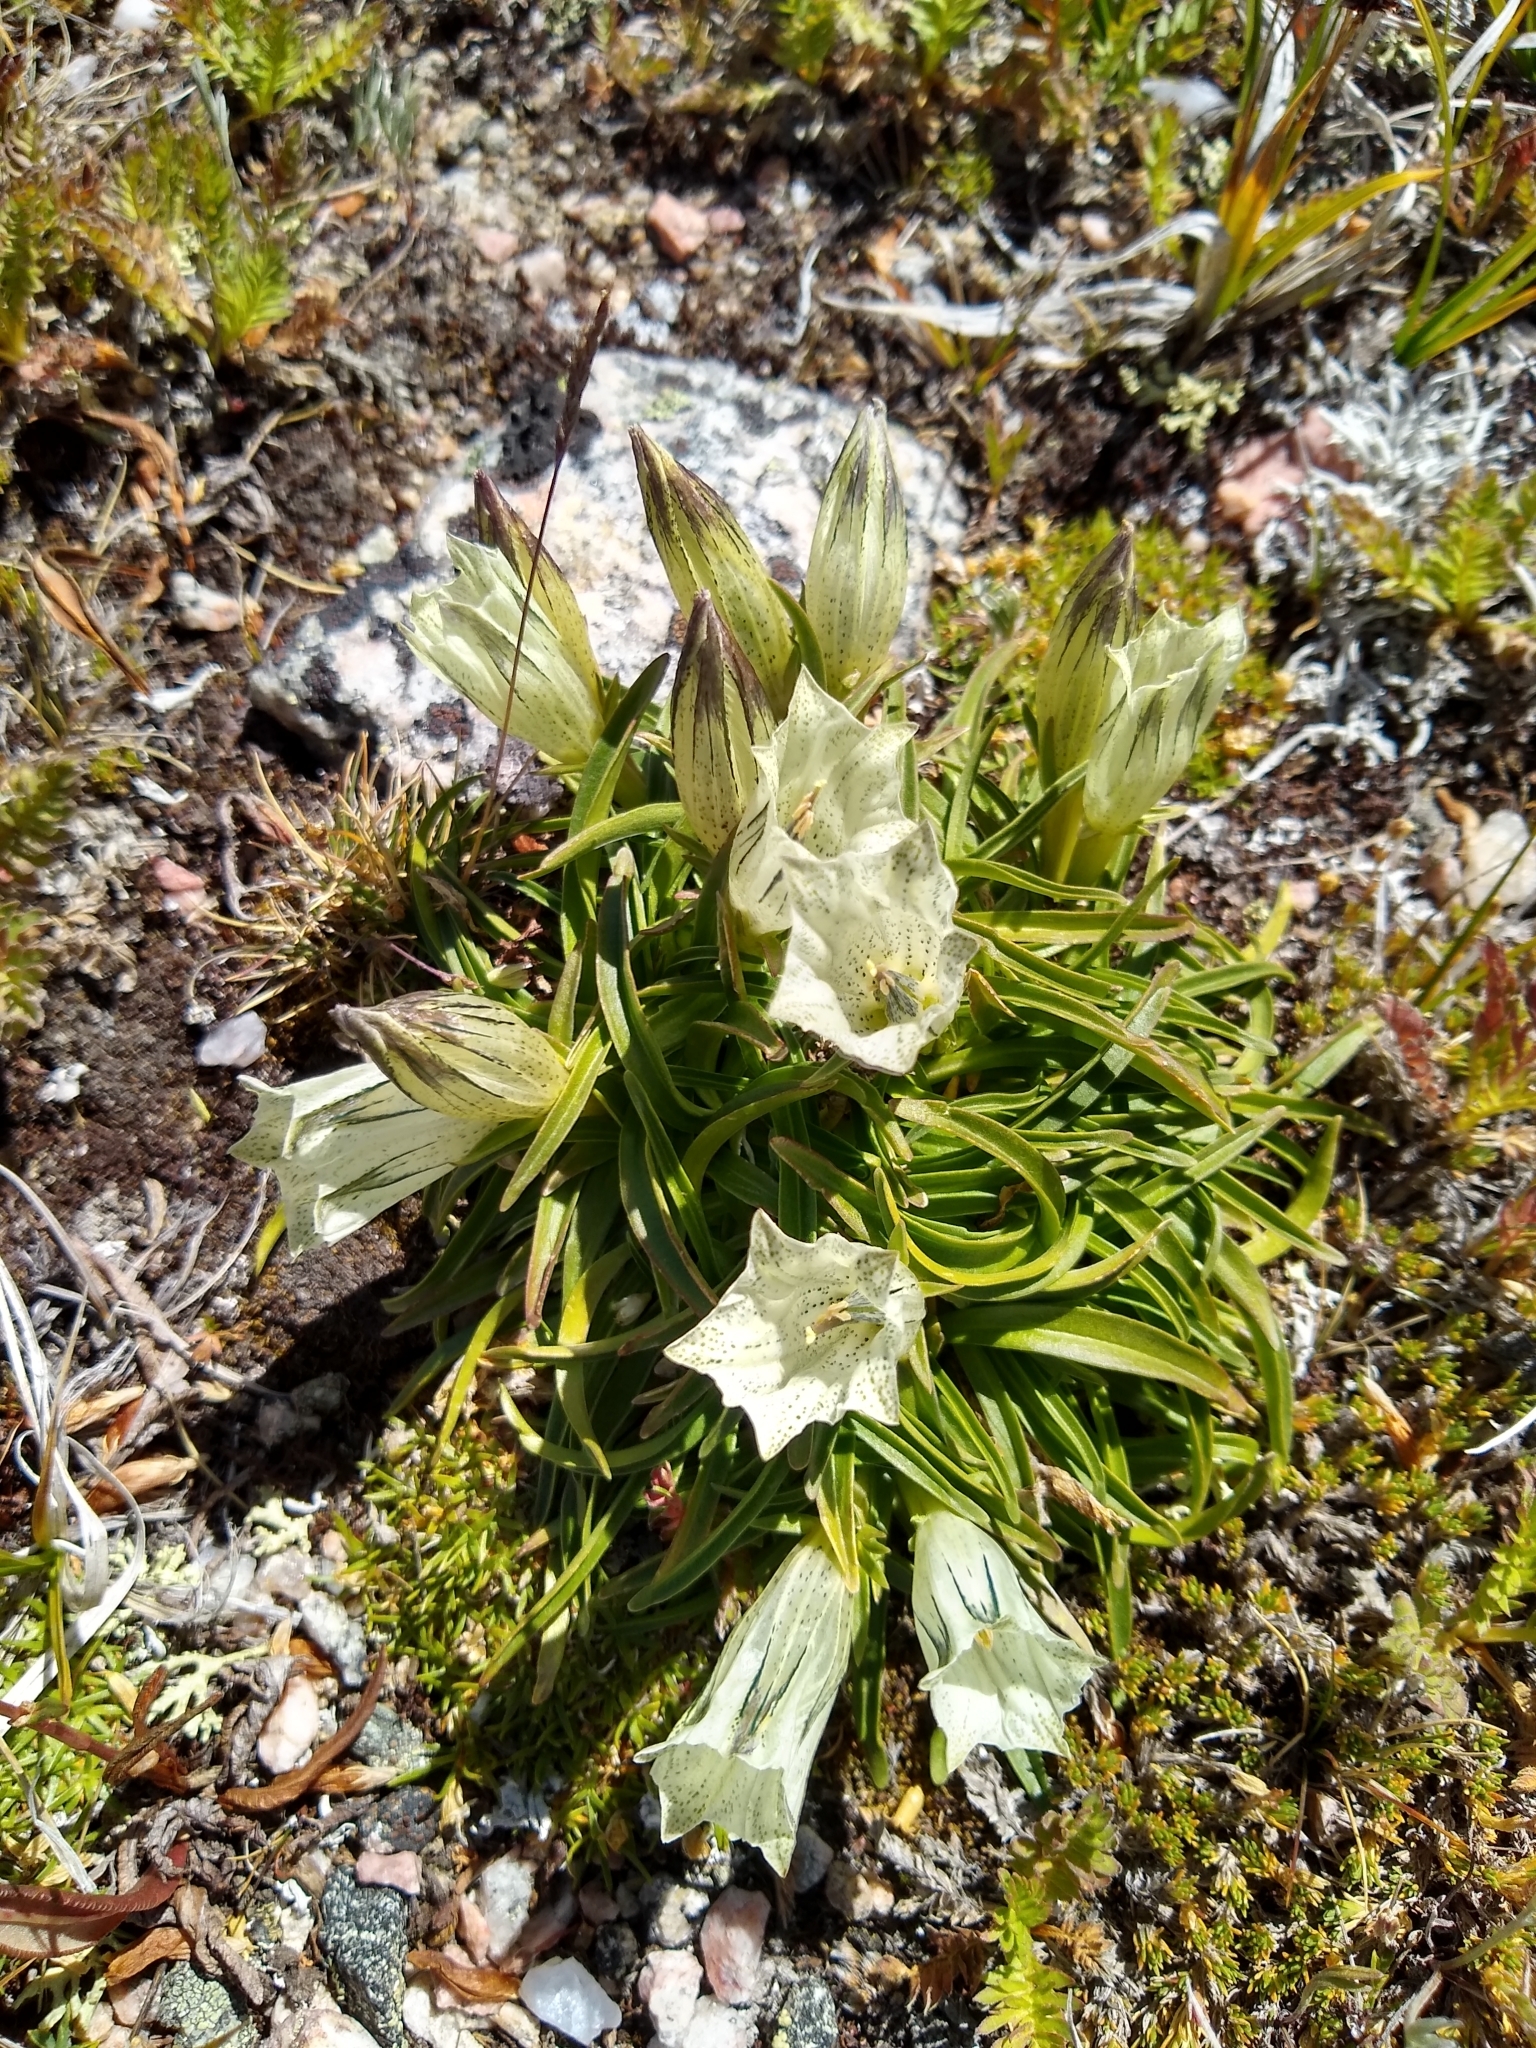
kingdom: Plantae
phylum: Tracheophyta
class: Magnoliopsida
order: Gentianales
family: Gentianaceae
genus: Gentiana
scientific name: Gentiana algida
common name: Arctic gentian
